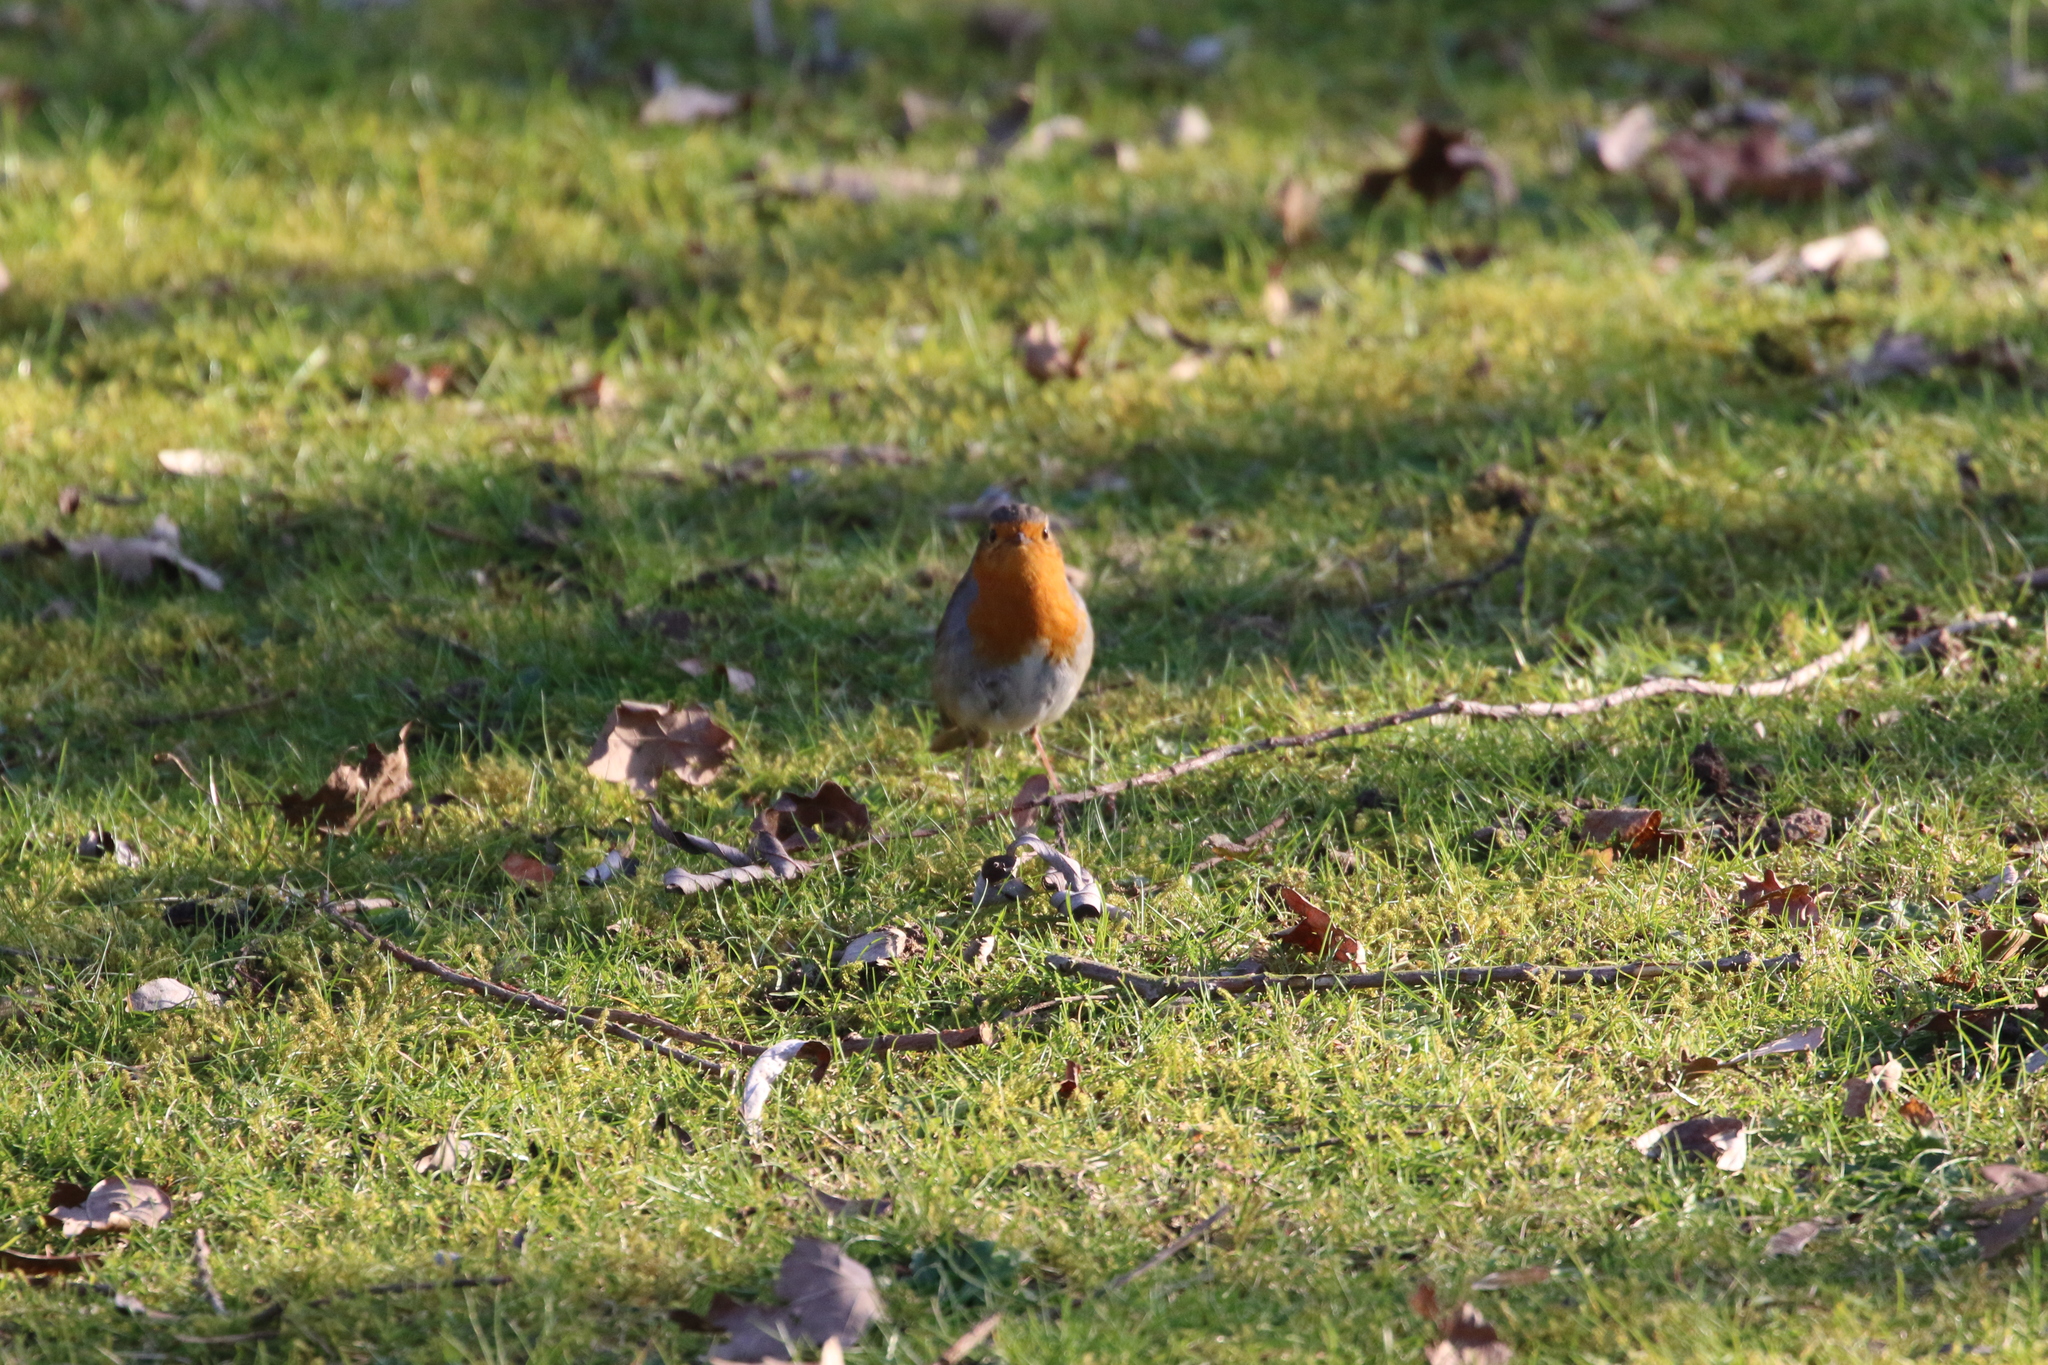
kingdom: Animalia
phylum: Chordata
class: Aves
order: Passeriformes
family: Muscicapidae
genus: Erithacus
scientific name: Erithacus rubecula
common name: European robin
